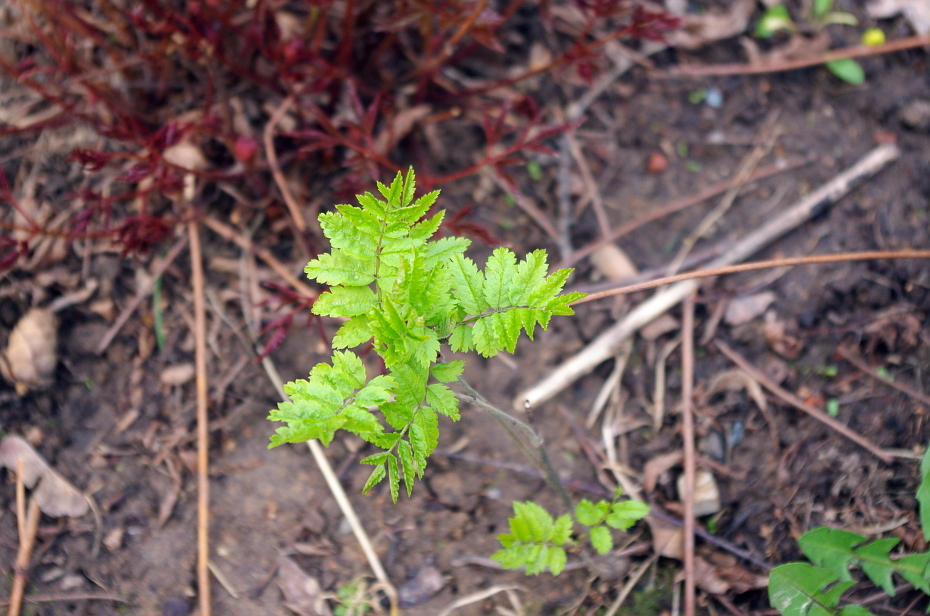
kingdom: Plantae
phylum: Tracheophyta
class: Magnoliopsida
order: Rosales
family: Rosaceae
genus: Sorbus
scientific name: Sorbus aucuparia
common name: Rowan
